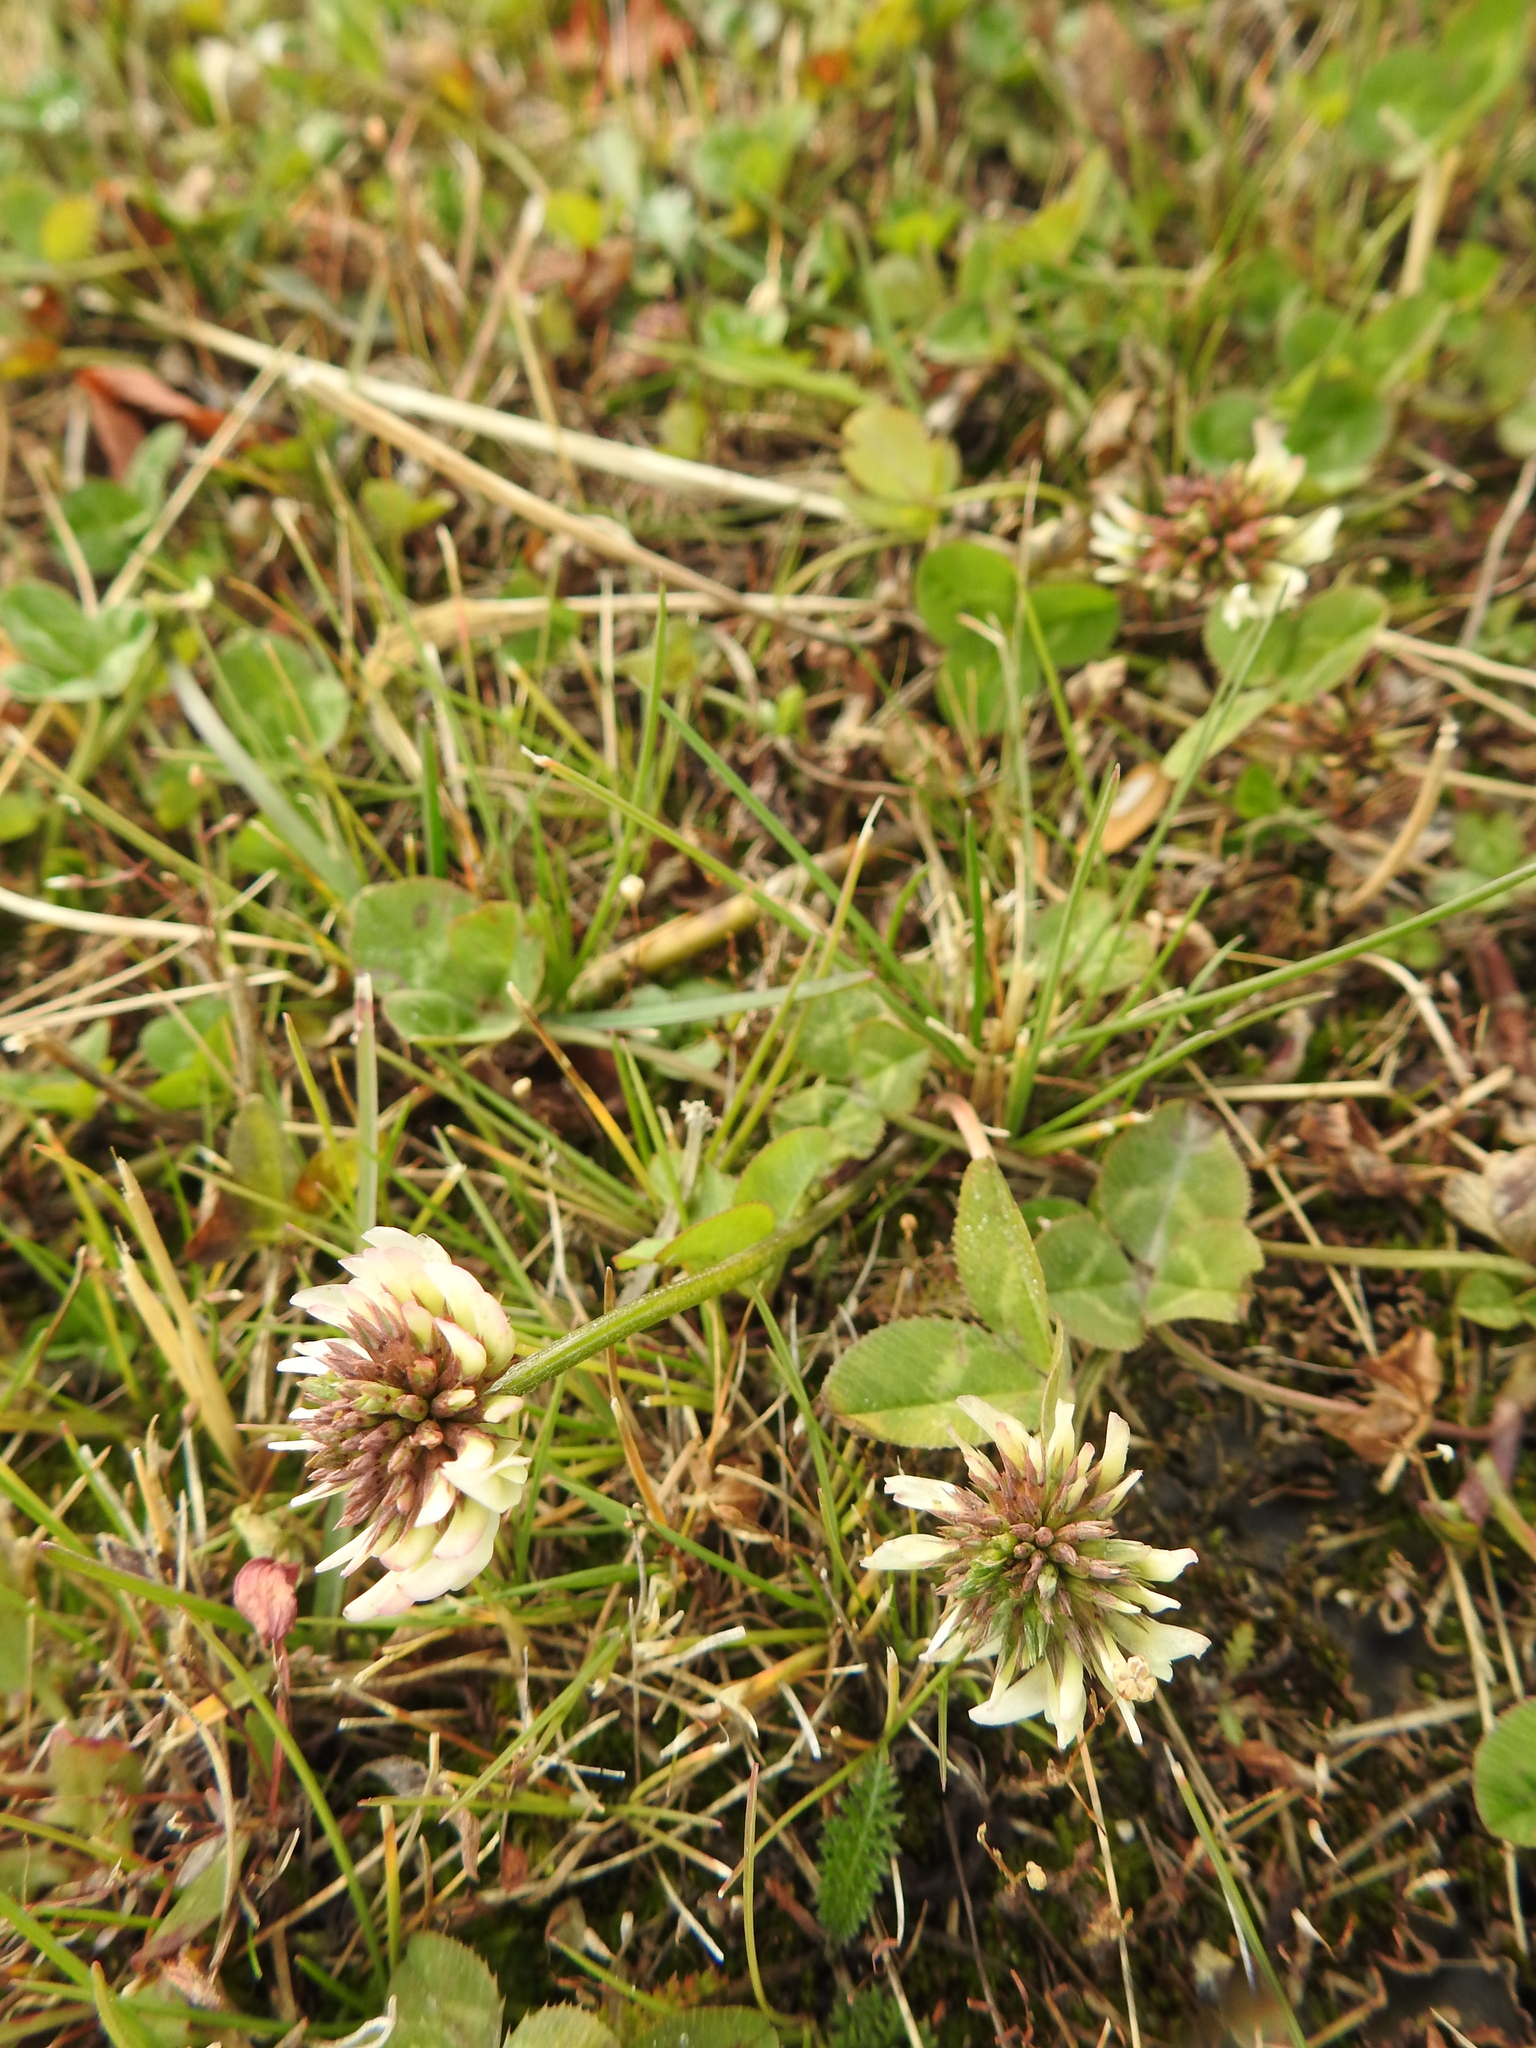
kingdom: Plantae
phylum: Tracheophyta
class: Magnoliopsida
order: Fabales
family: Fabaceae
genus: Trifolium
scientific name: Trifolium repens
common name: White clover
